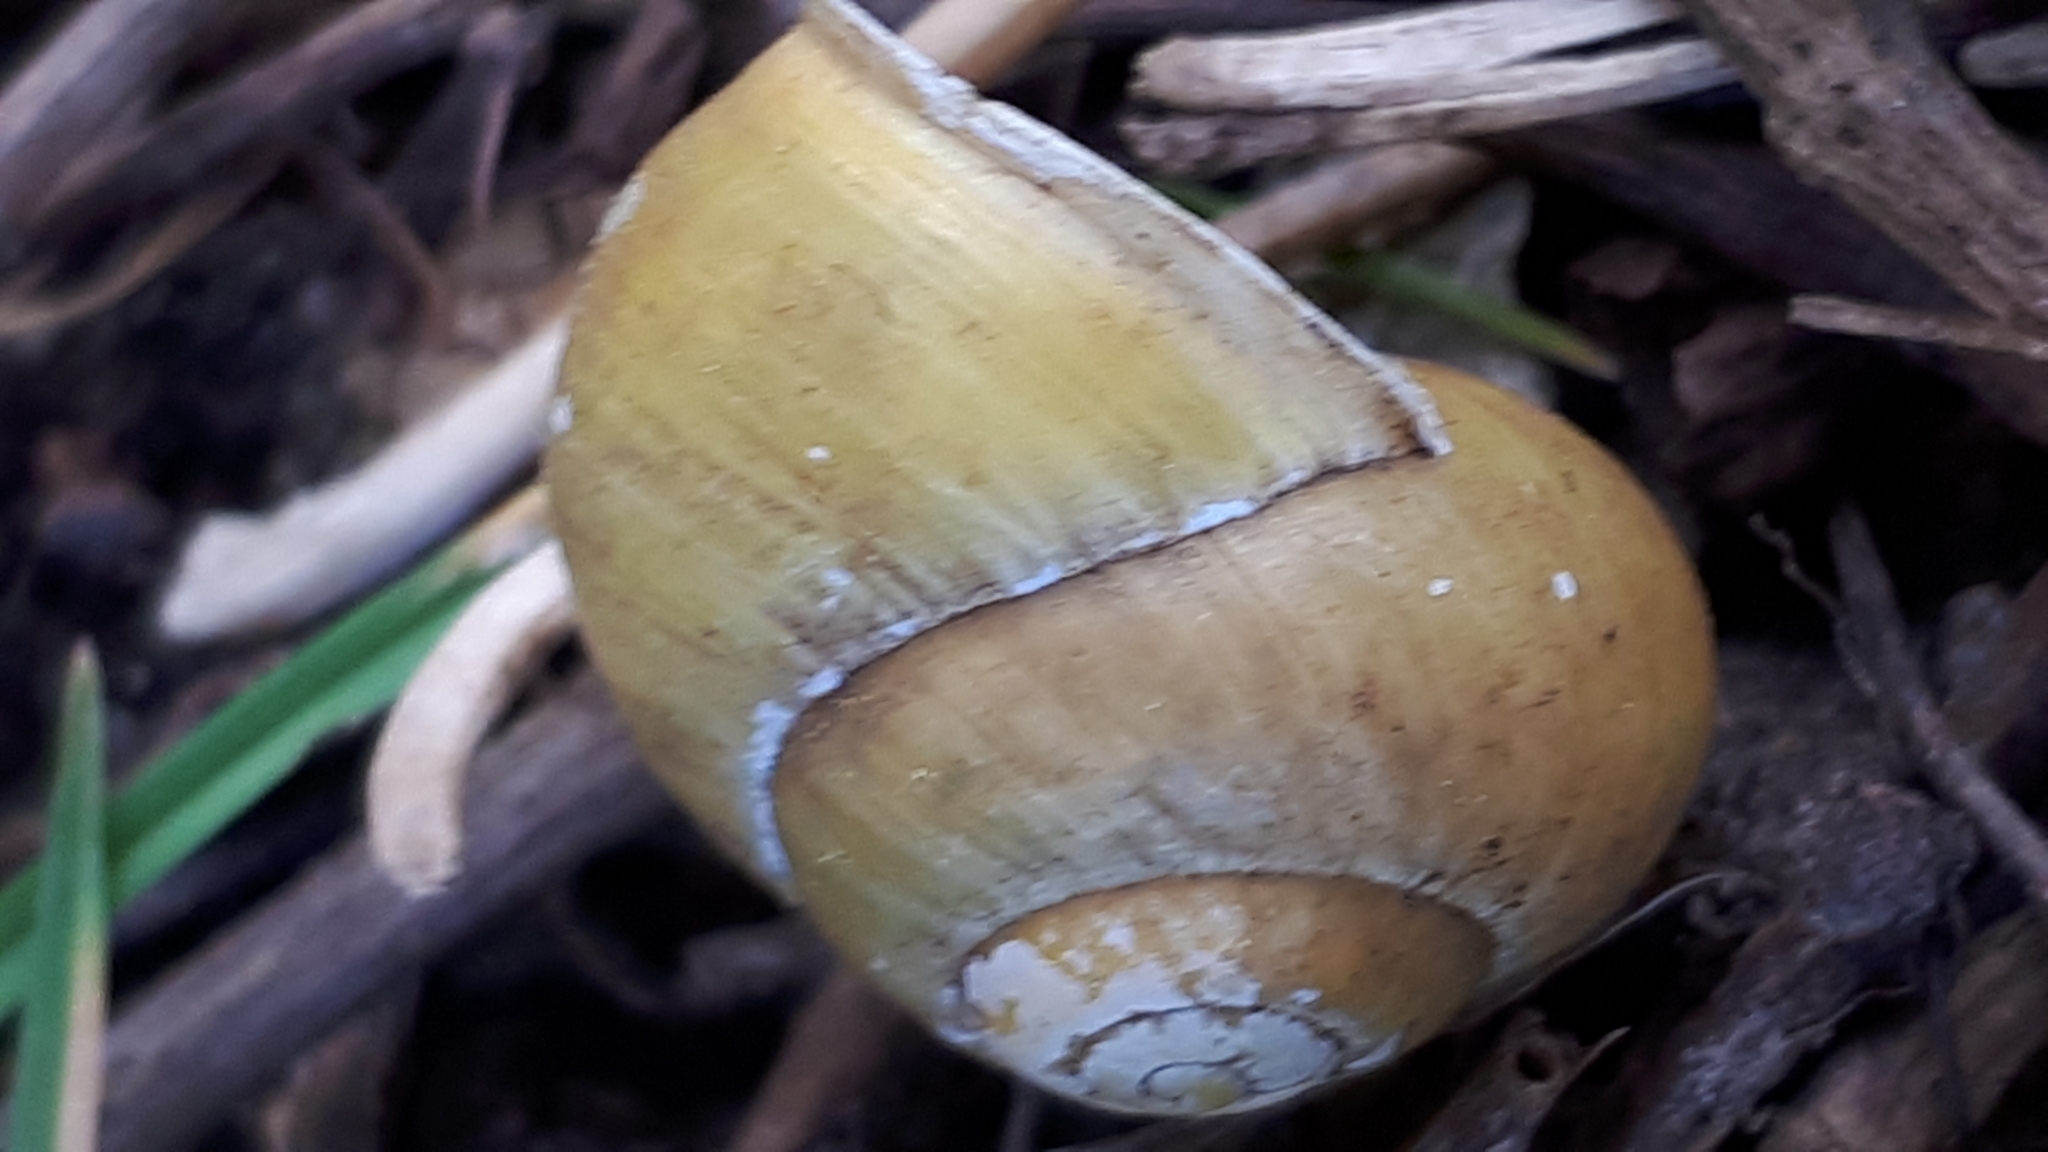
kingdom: Animalia
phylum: Mollusca
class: Gastropoda
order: Stylommatophora
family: Helicidae
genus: Cepaea
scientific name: Cepaea hortensis
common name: White-lip gardensnail
